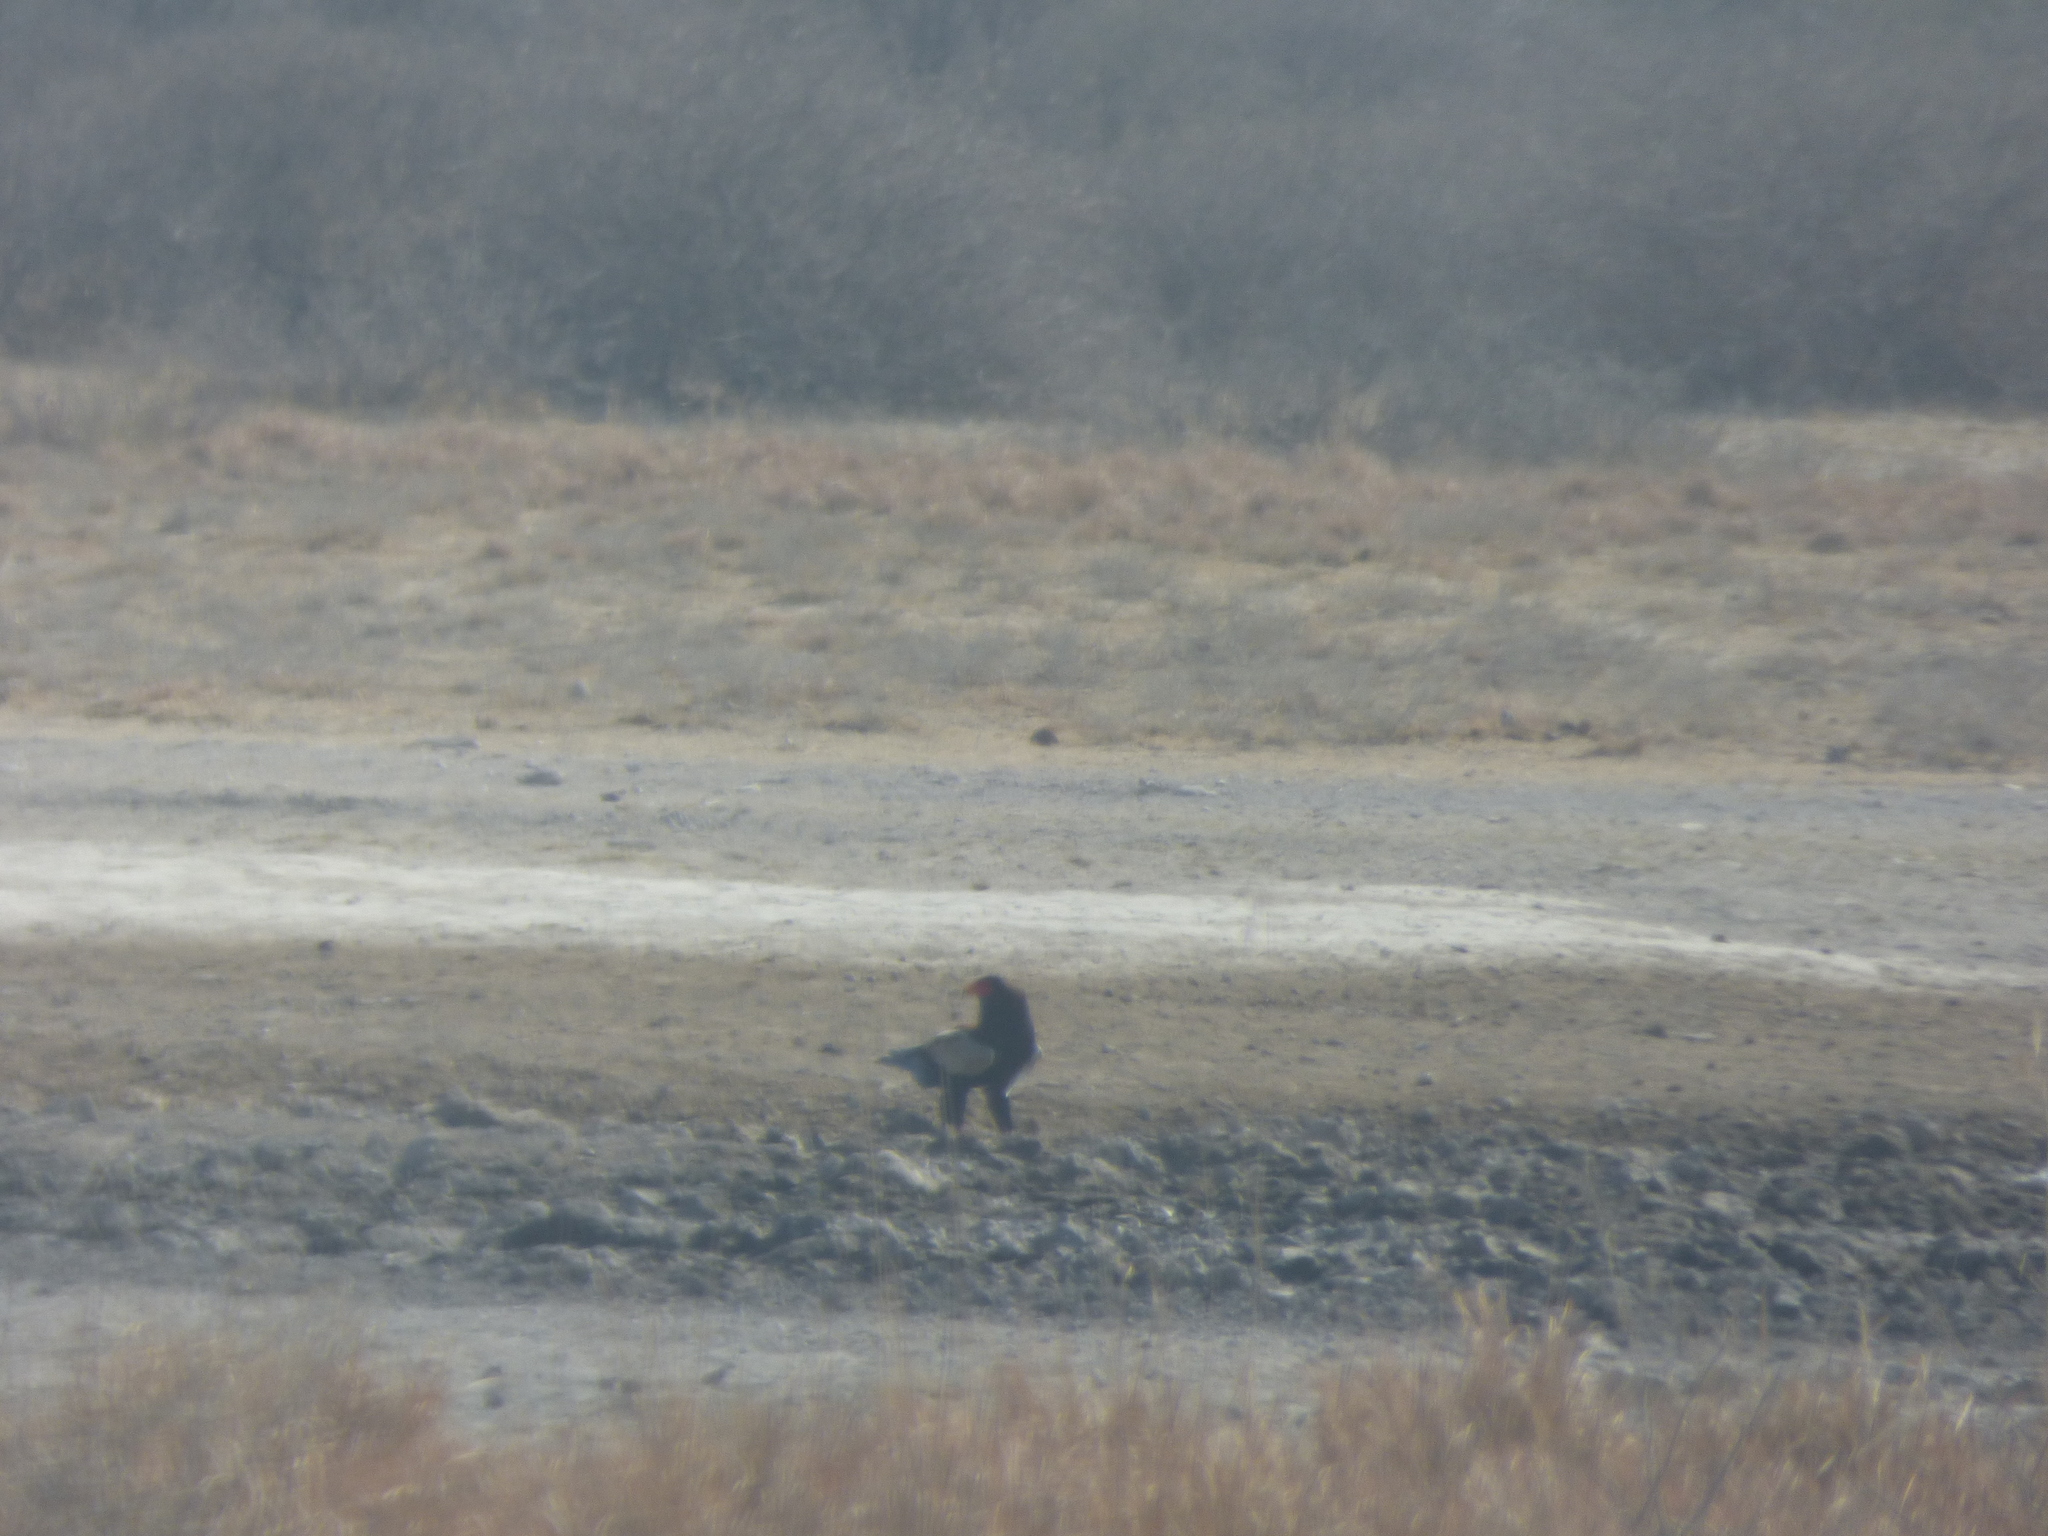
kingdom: Animalia
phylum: Chordata
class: Aves
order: Accipitriformes
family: Accipitridae
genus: Terathopius
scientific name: Terathopius ecaudatus
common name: Bateleur
